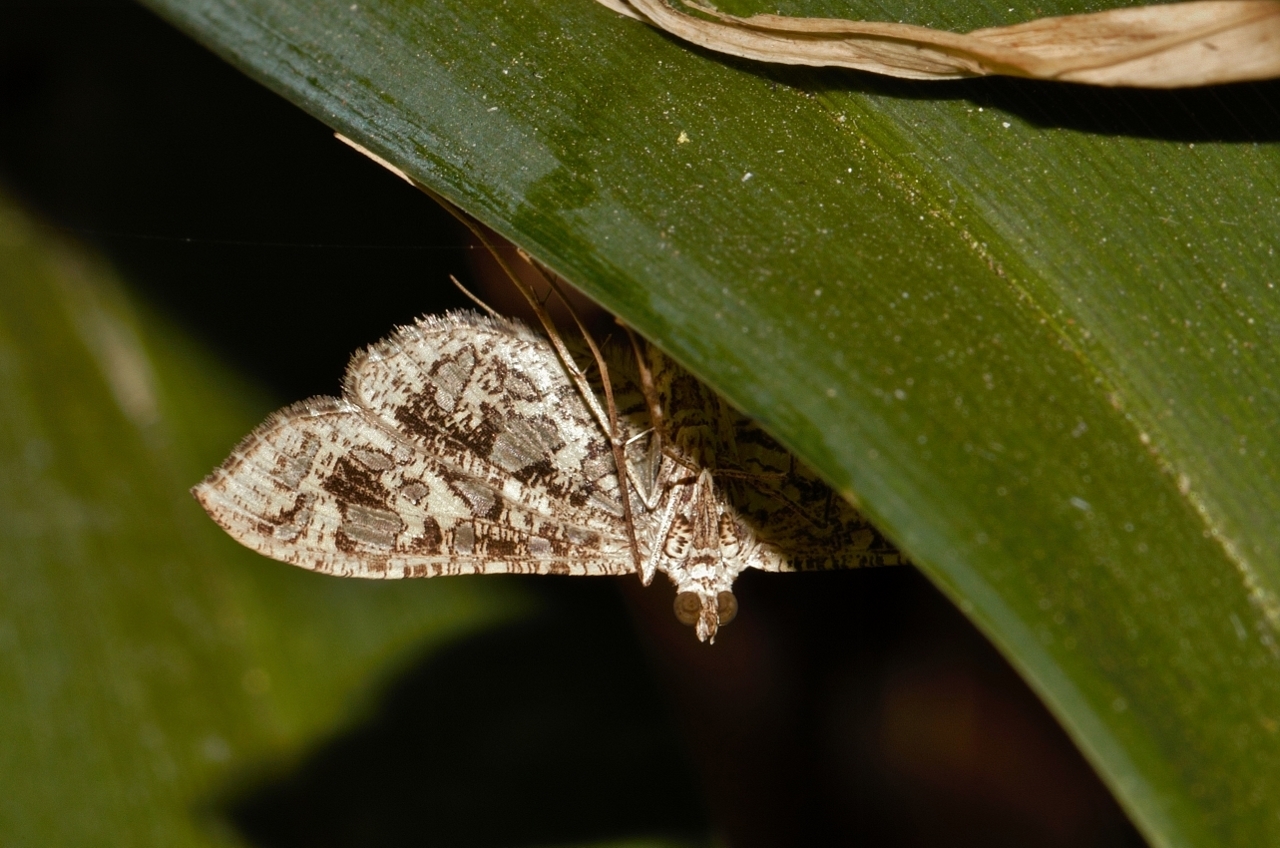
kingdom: Animalia
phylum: Arthropoda
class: Insecta
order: Lepidoptera
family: Crambidae
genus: Nausinoe
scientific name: Nausinoe geometralis
